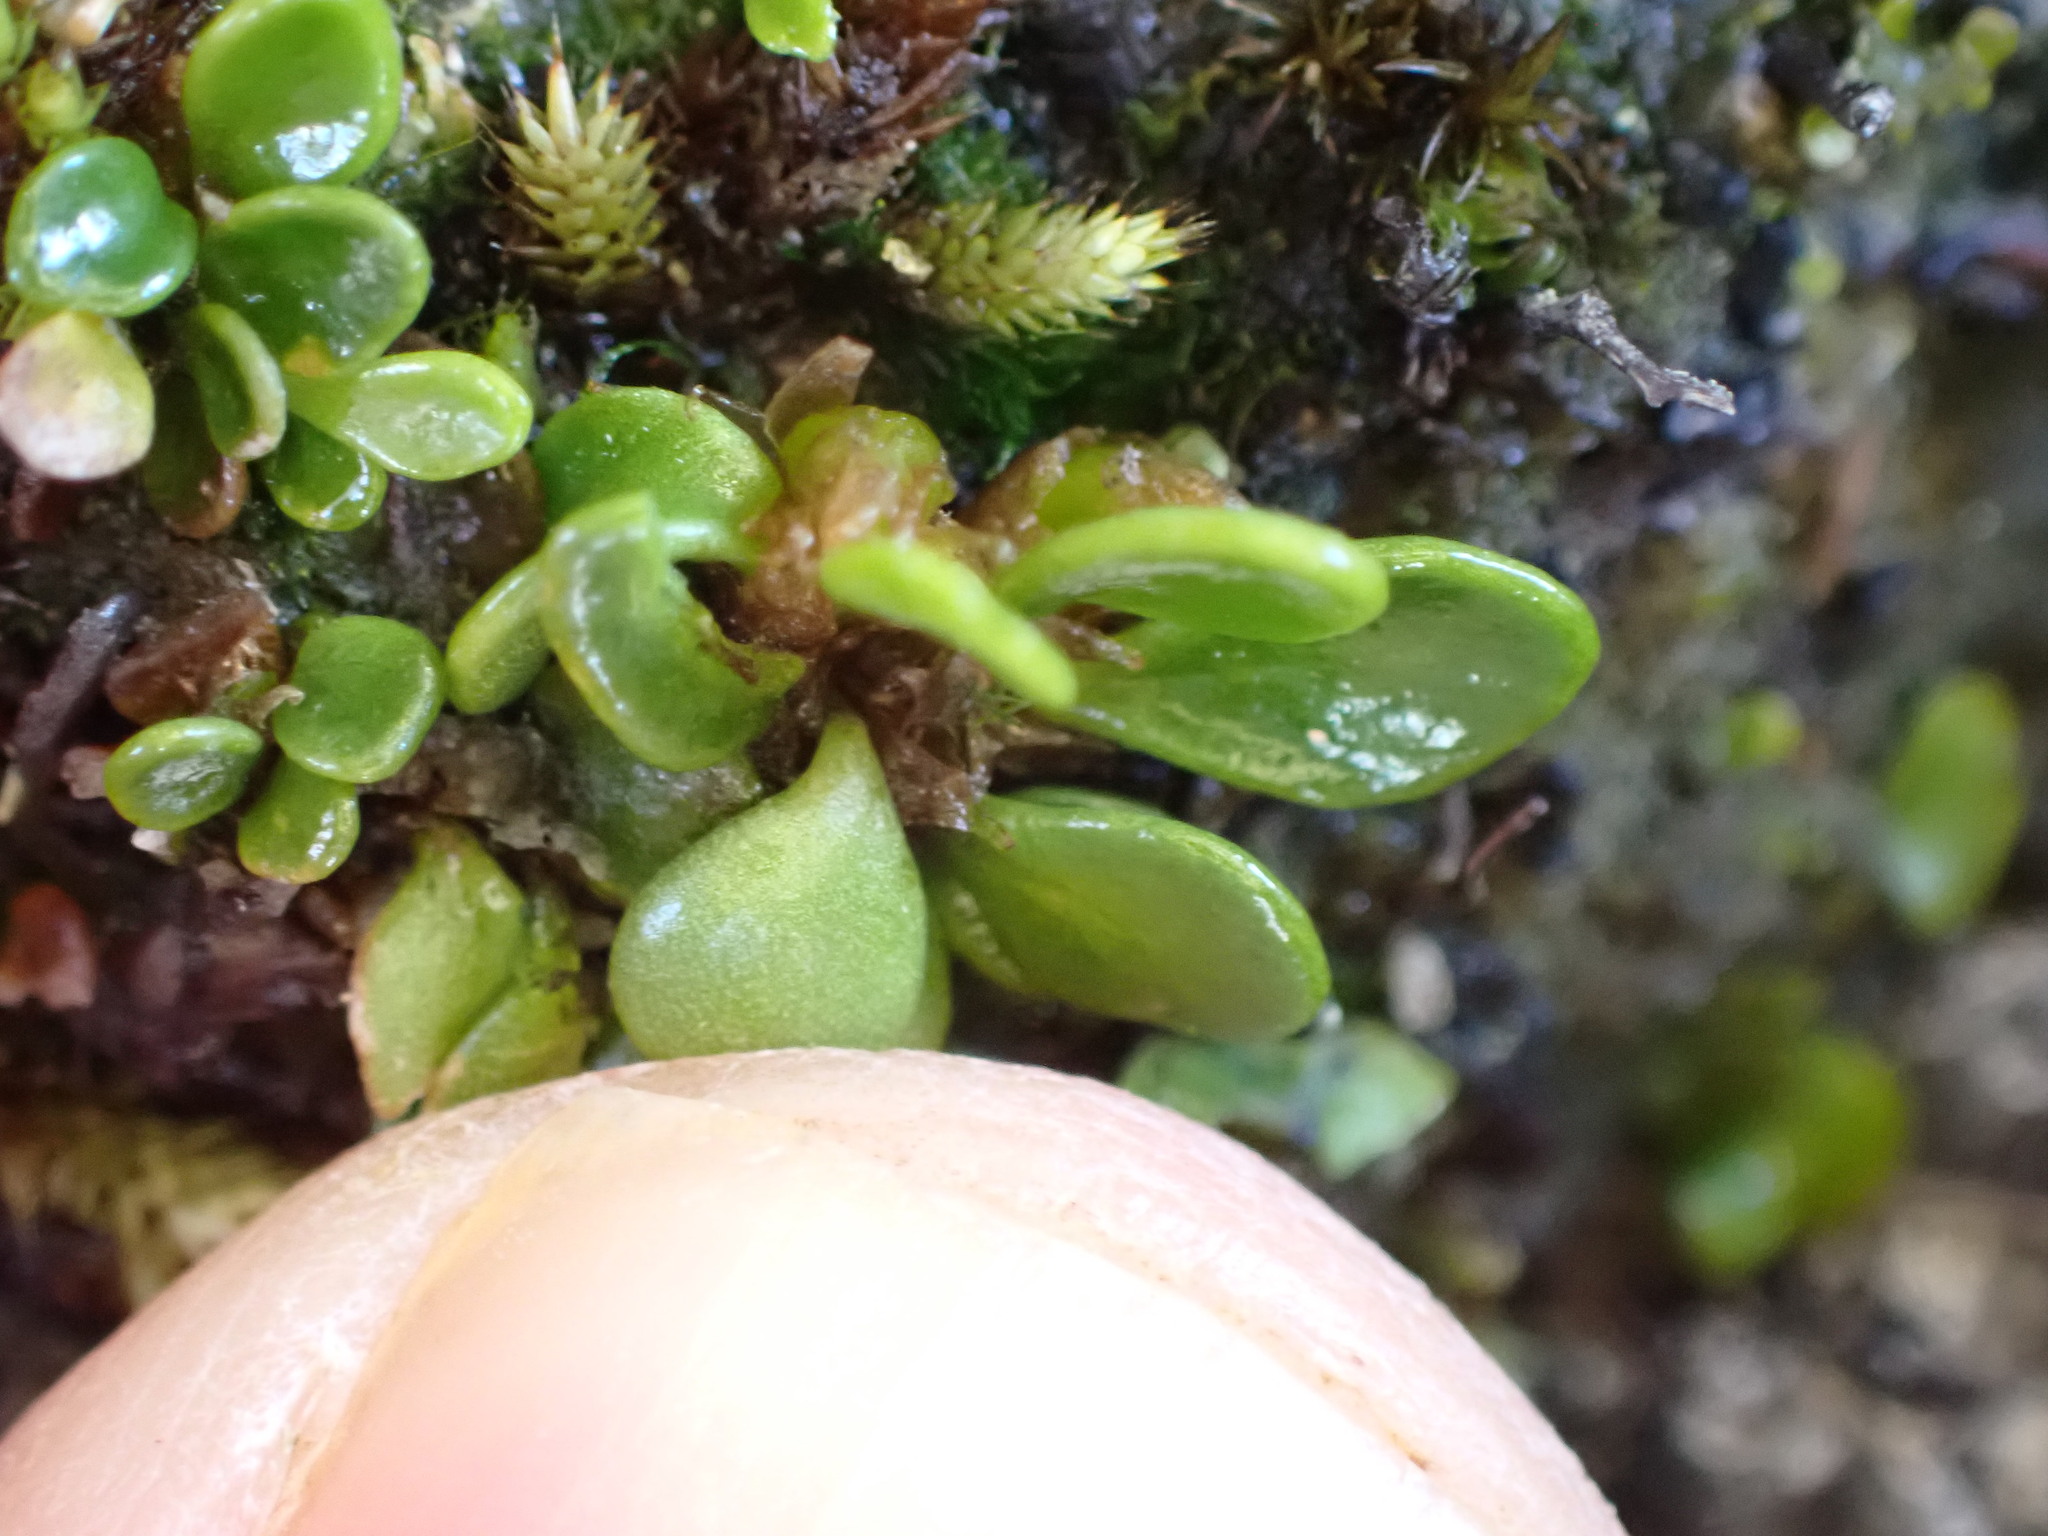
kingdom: Plantae
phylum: Tracheophyta
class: Polypodiopsida
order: Polypodiales
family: Polypodiaceae
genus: Notogrammitis
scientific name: Notogrammitis crassior
